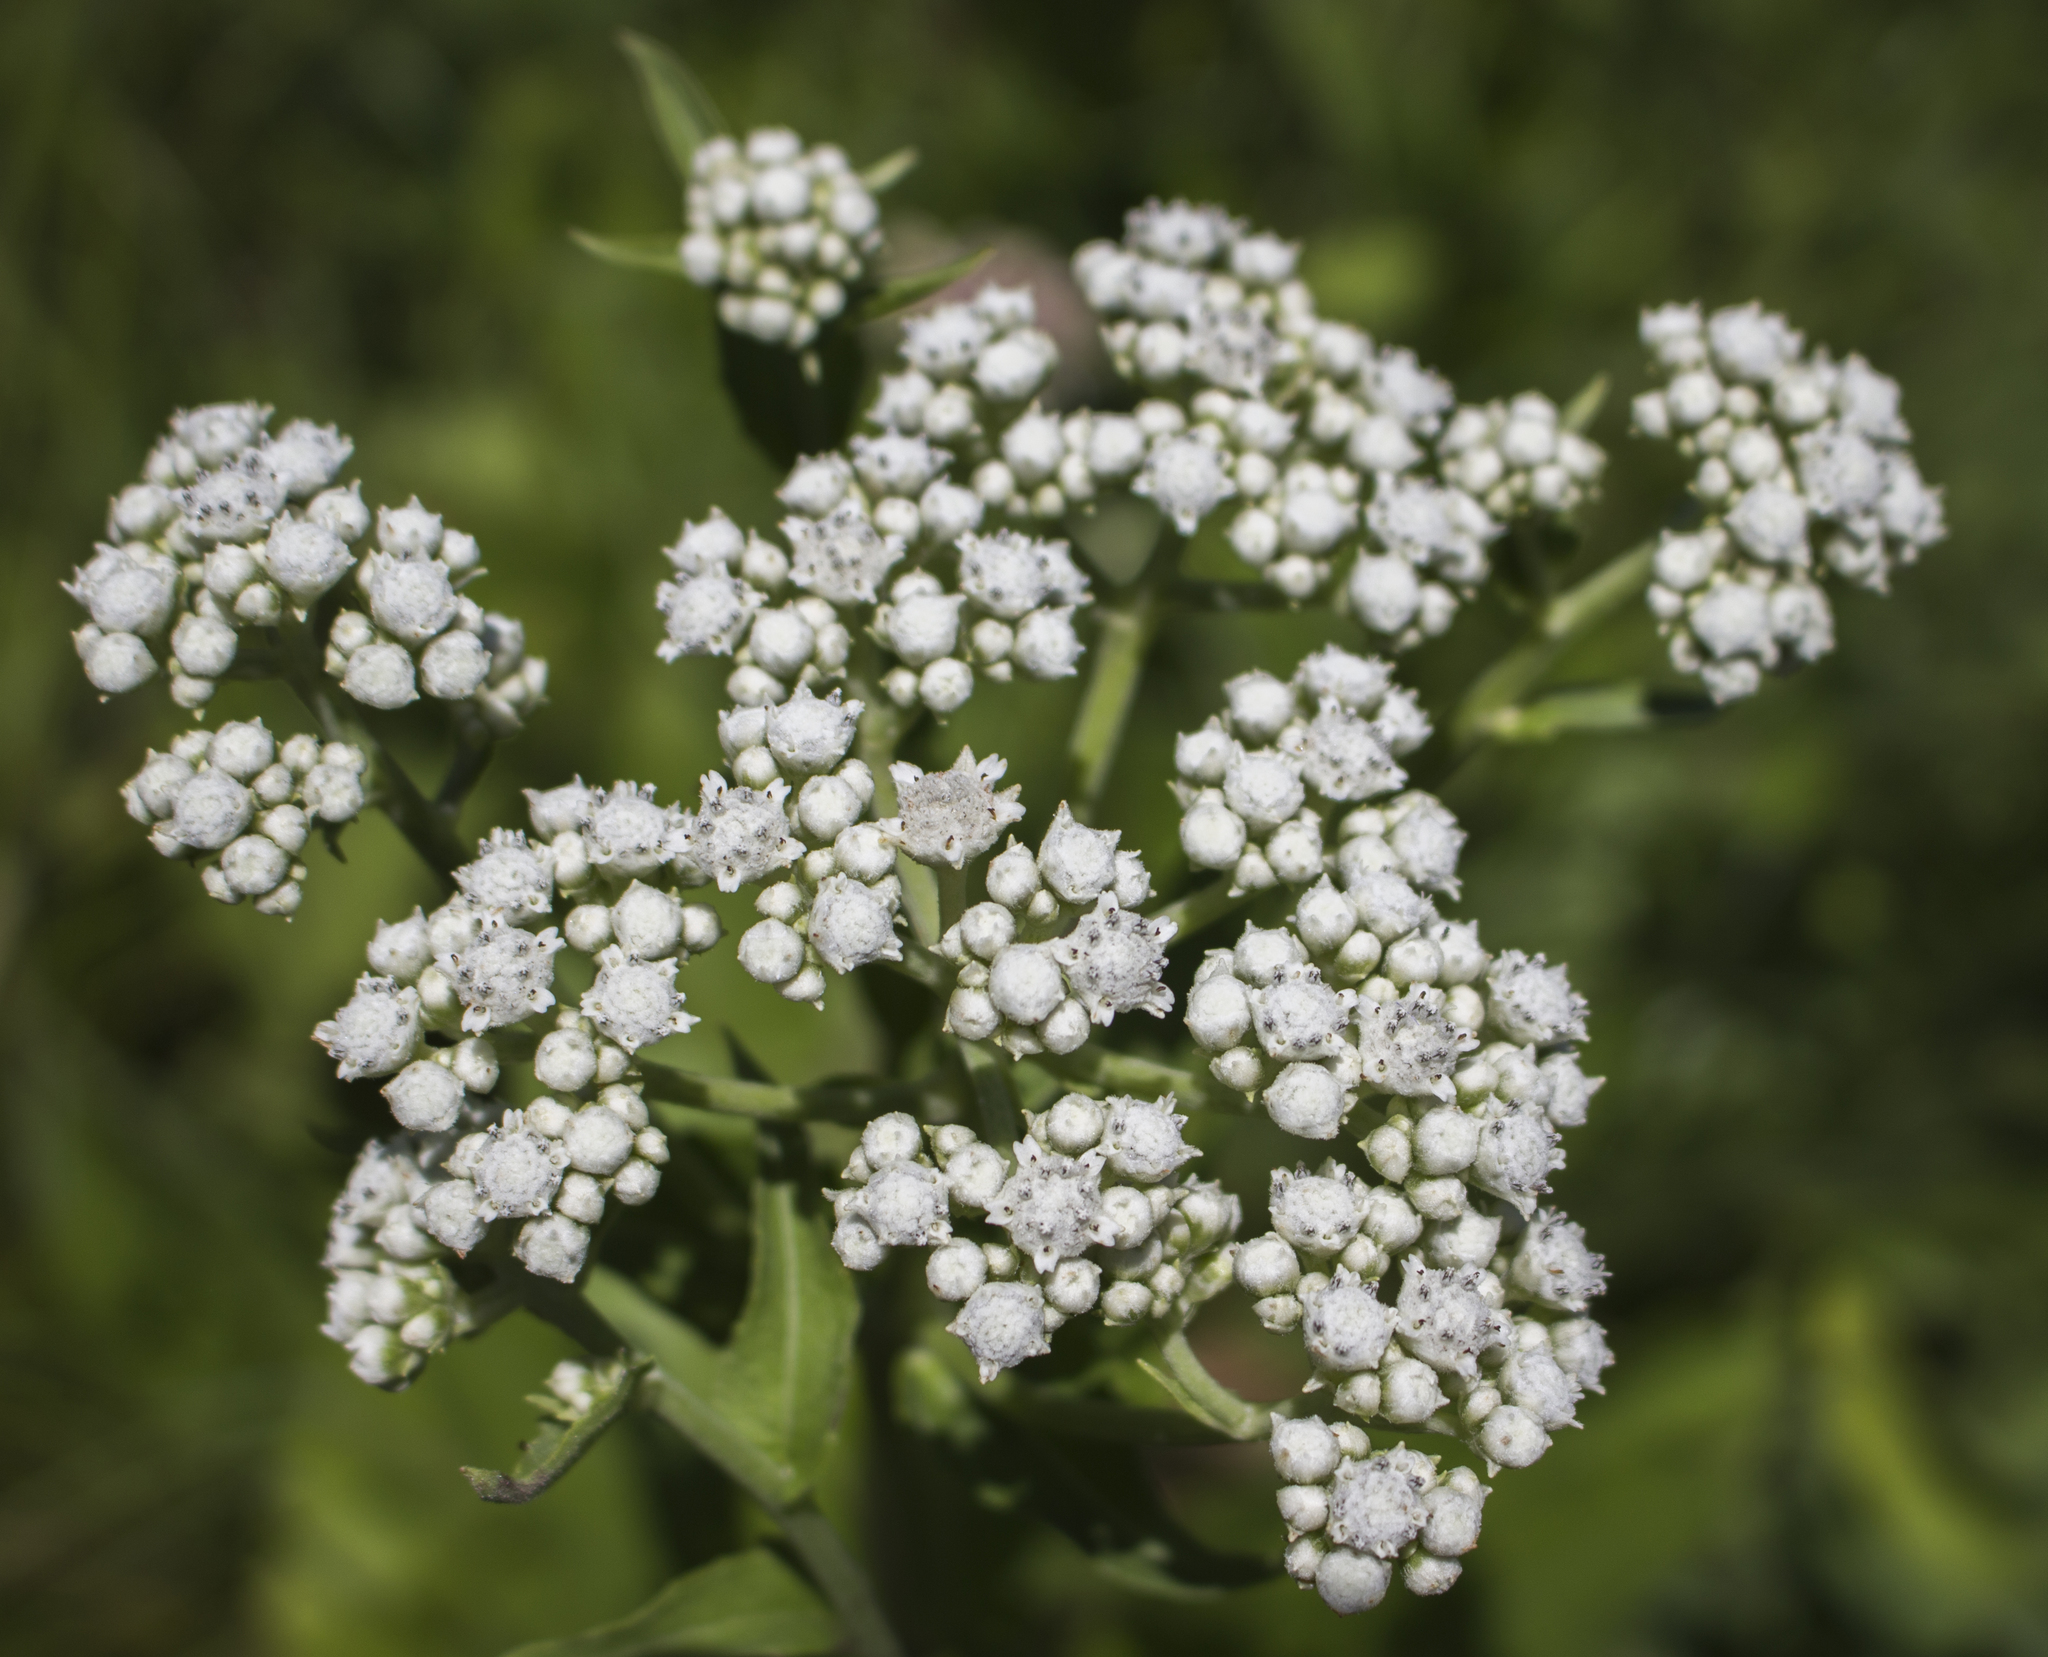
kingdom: Plantae
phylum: Tracheophyta
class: Magnoliopsida
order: Asterales
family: Asteraceae
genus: Parthenium
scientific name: Parthenium integrifolium
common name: American feverfew
